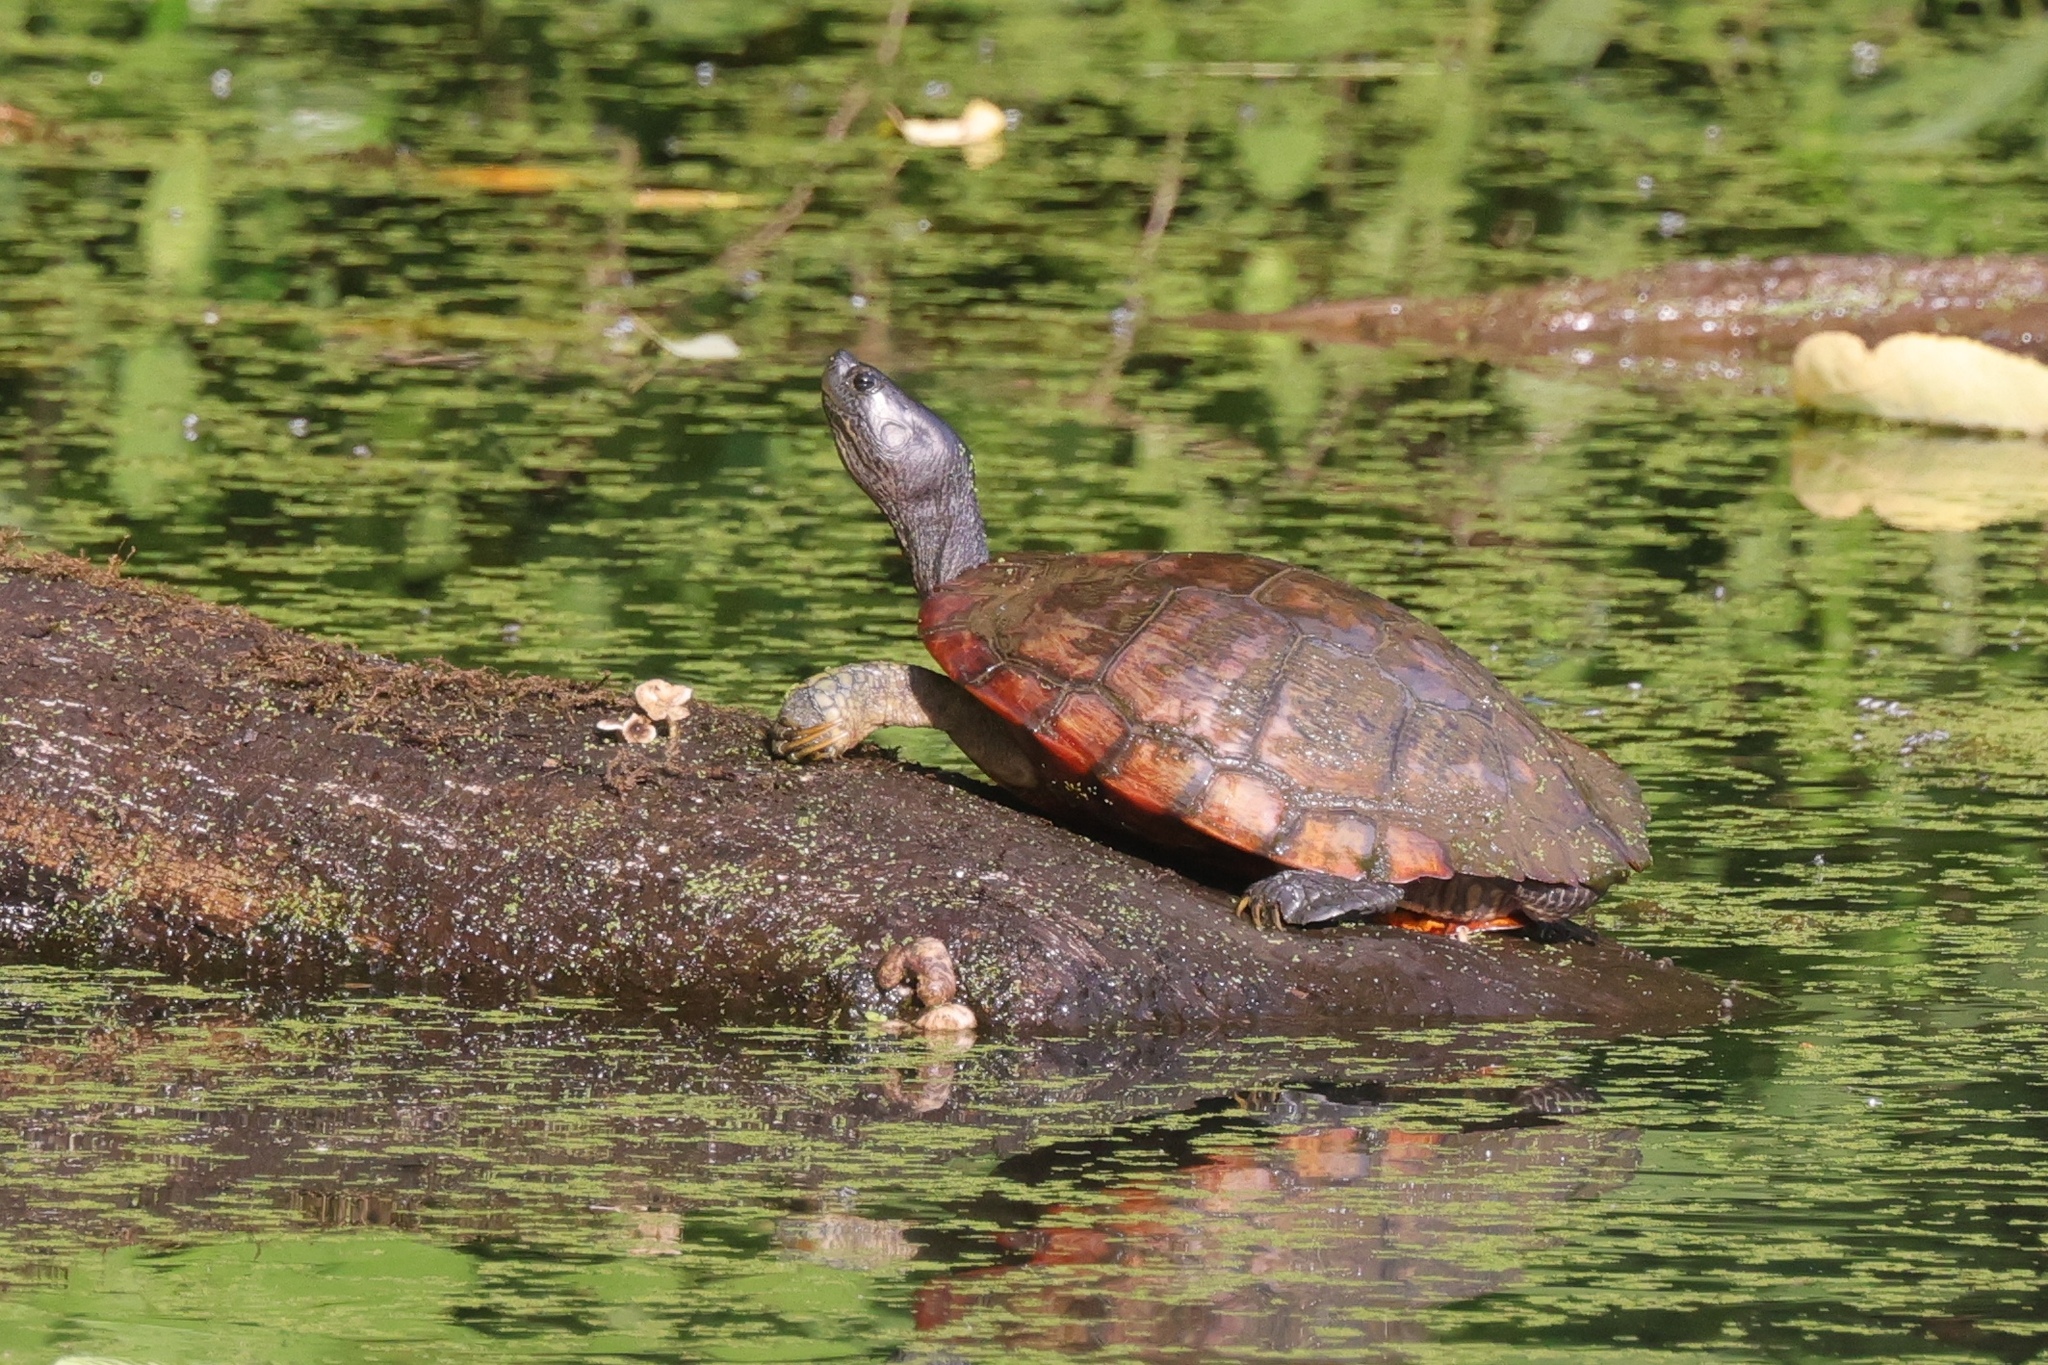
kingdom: Animalia
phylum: Chordata
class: Testudines
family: Emydidae
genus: Trachemys
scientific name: Trachemys scripta
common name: Slider
